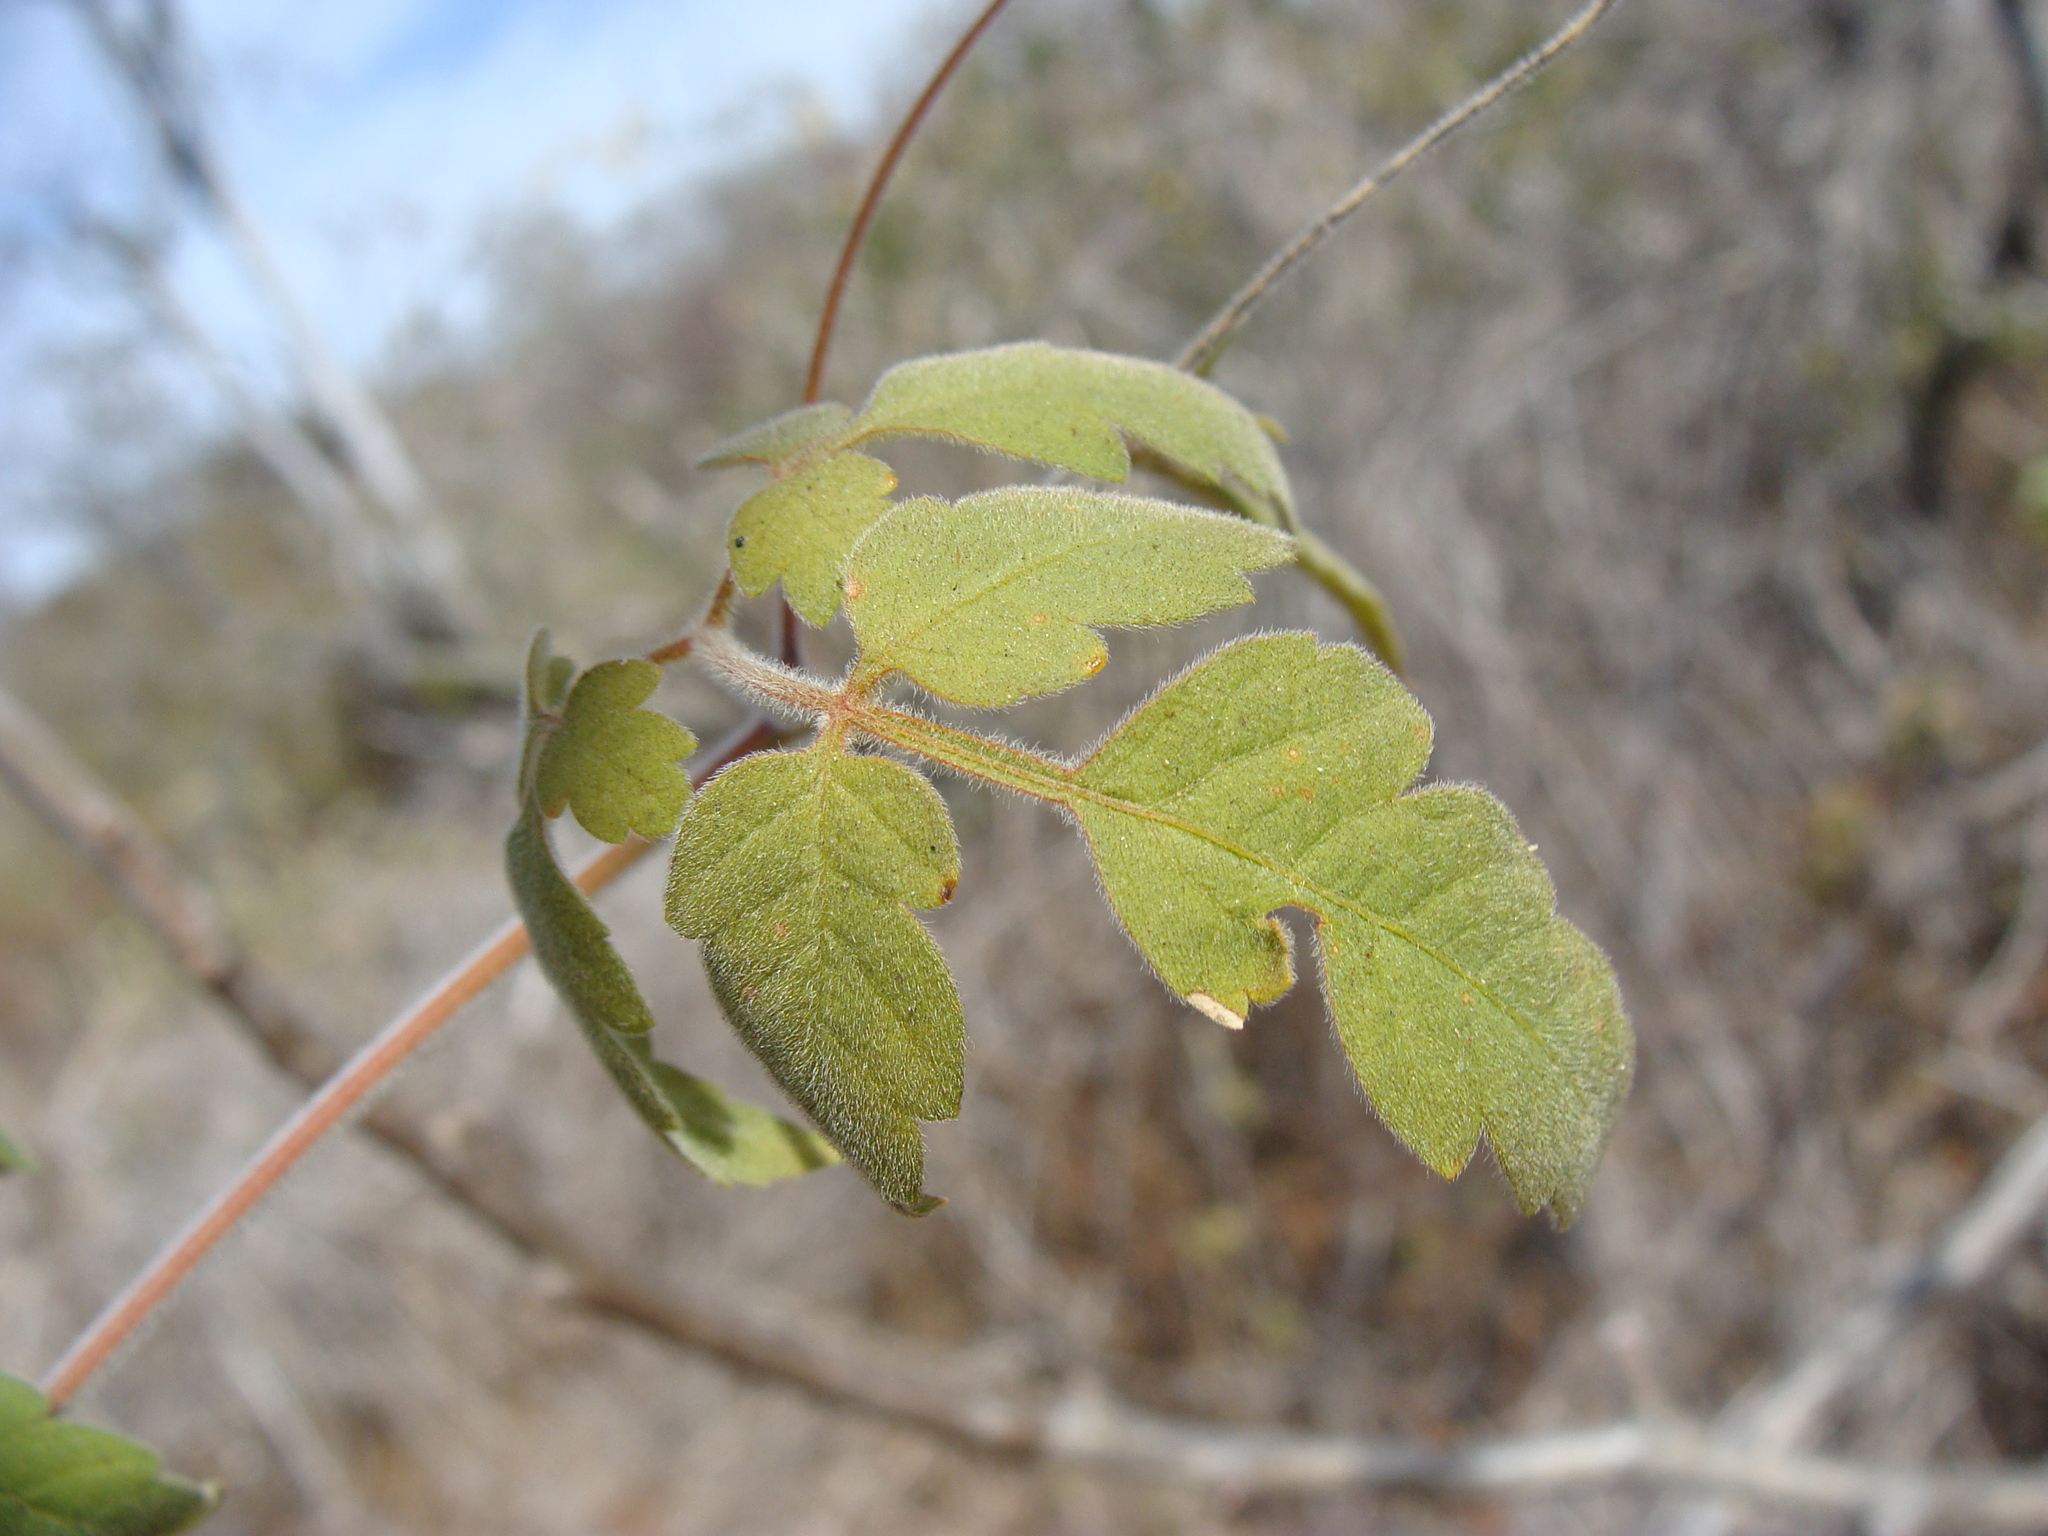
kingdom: Plantae
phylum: Tracheophyta
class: Magnoliopsida
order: Sapindales
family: Sapindaceae
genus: Cardiospermum
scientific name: Cardiospermum corindum
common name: Faux persil
